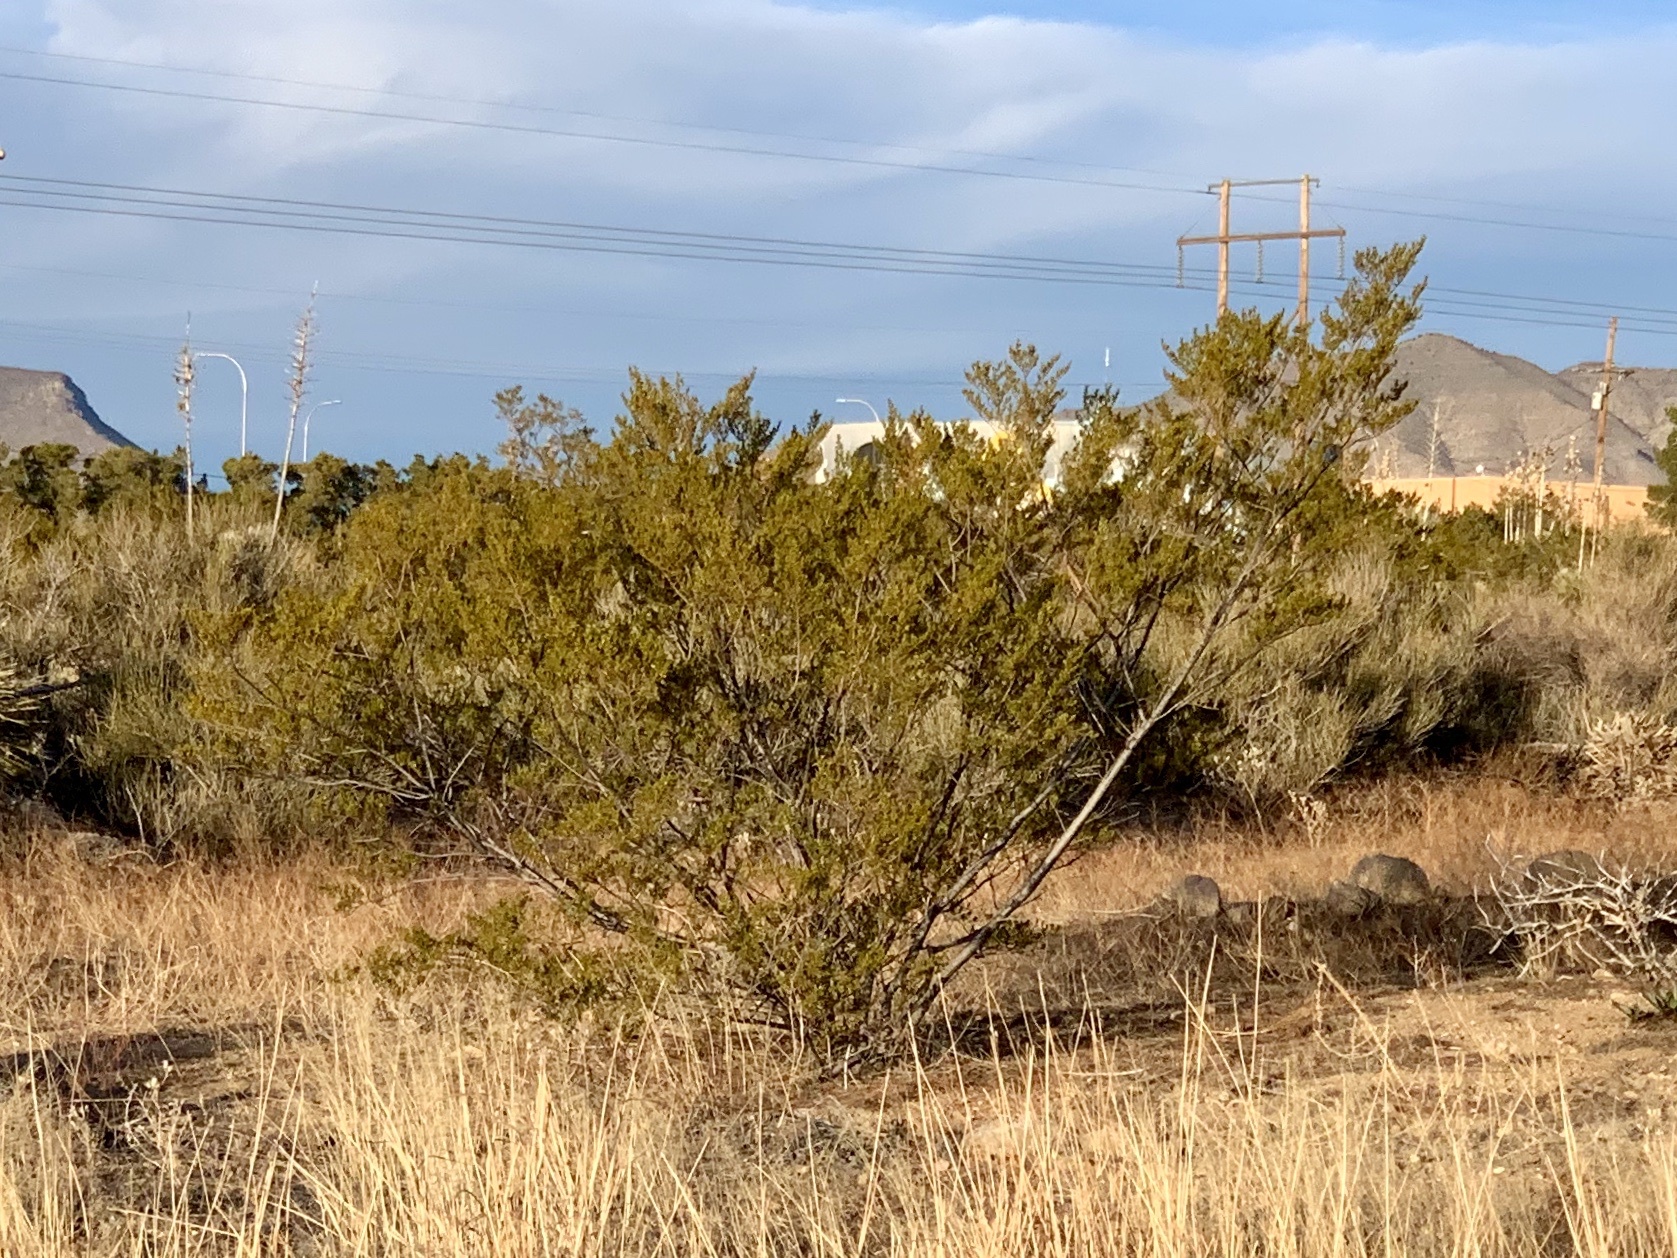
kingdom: Plantae
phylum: Tracheophyta
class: Magnoliopsida
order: Zygophyllales
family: Zygophyllaceae
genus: Larrea
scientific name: Larrea tridentata
